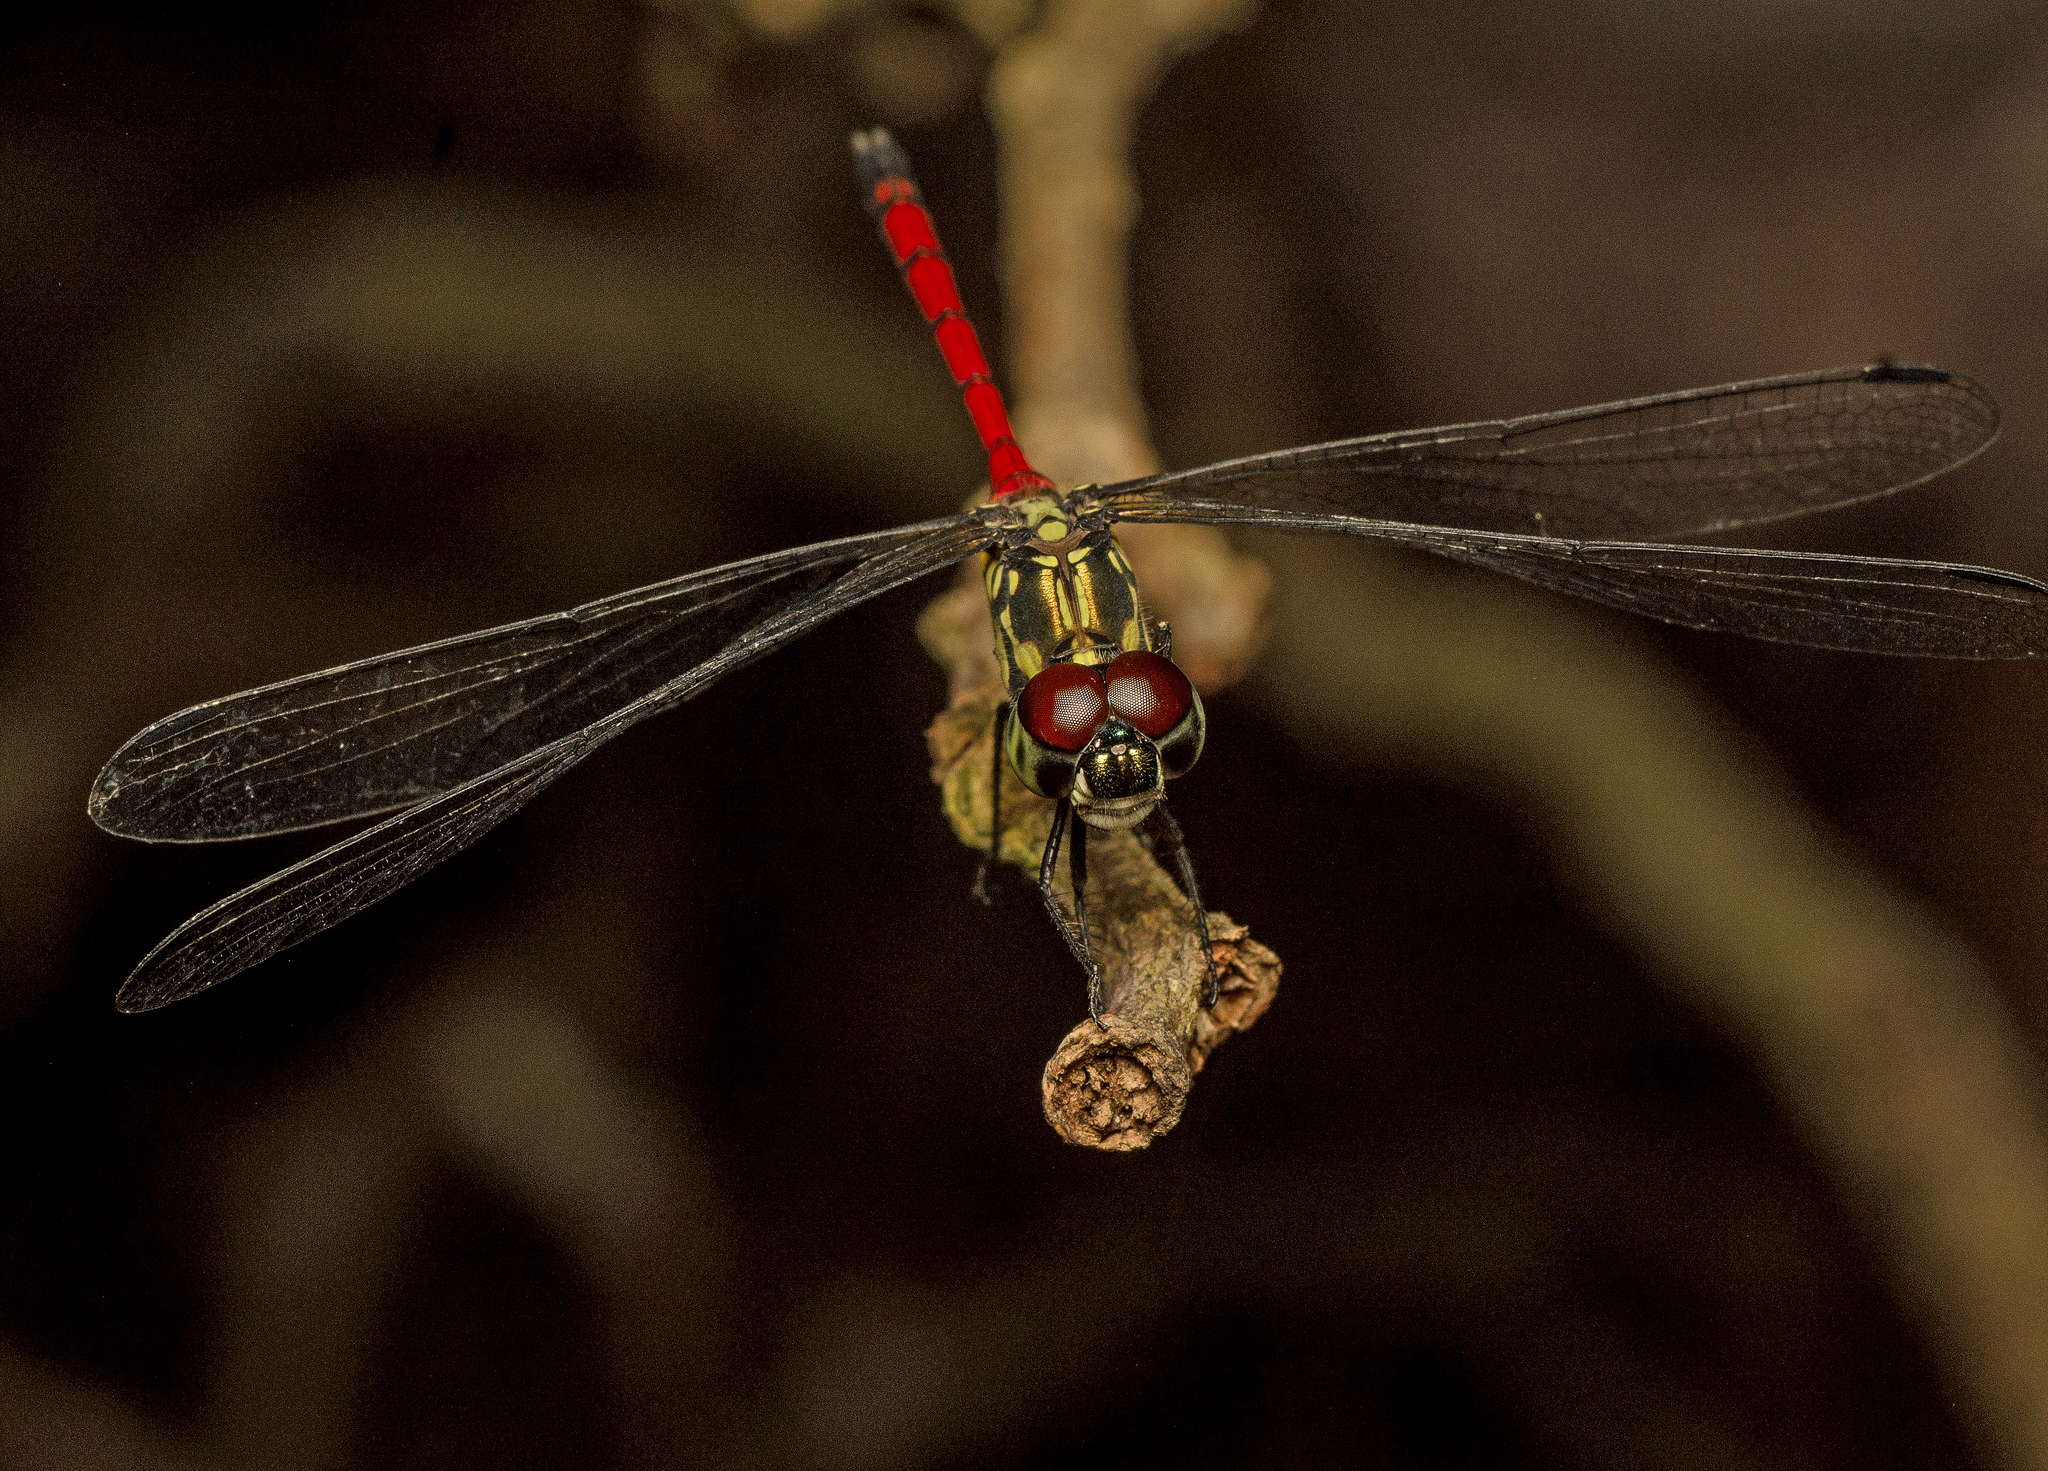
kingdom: Animalia
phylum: Arthropoda
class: Insecta
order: Odonata
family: Libellulidae
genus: Agrionoptera
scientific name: Agrionoptera insignis
